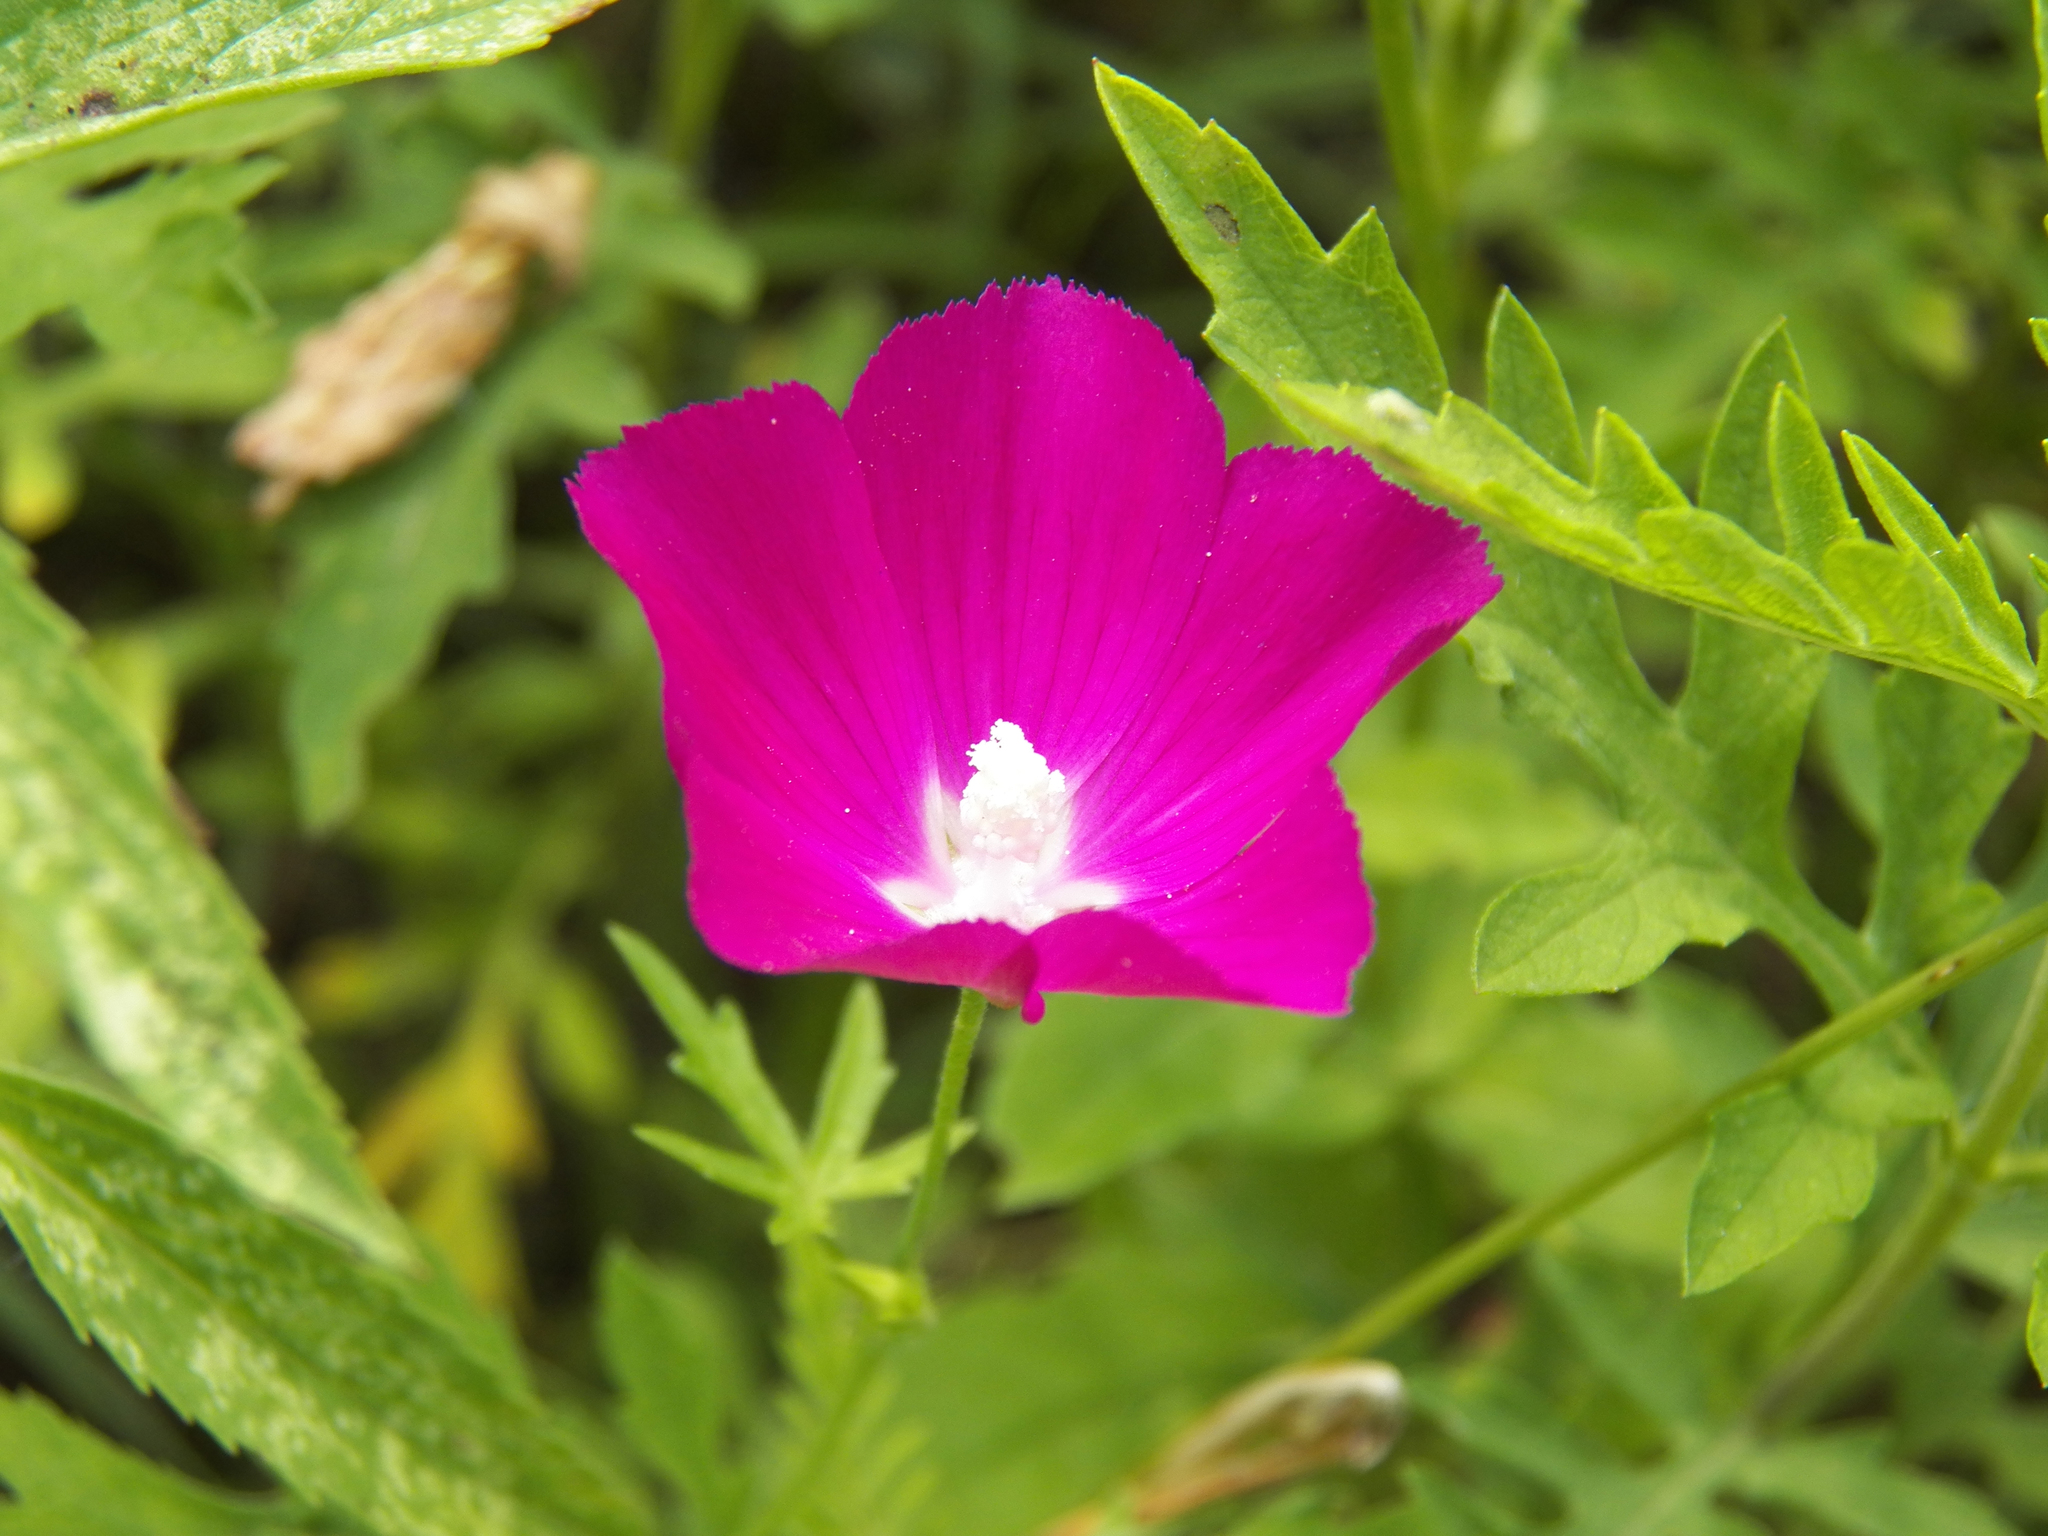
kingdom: Plantae
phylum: Tracheophyta
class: Magnoliopsida
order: Malvales
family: Malvaceae
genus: Callirhoe
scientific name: Callirhoe involucrata
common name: Purple poppy-mallow
